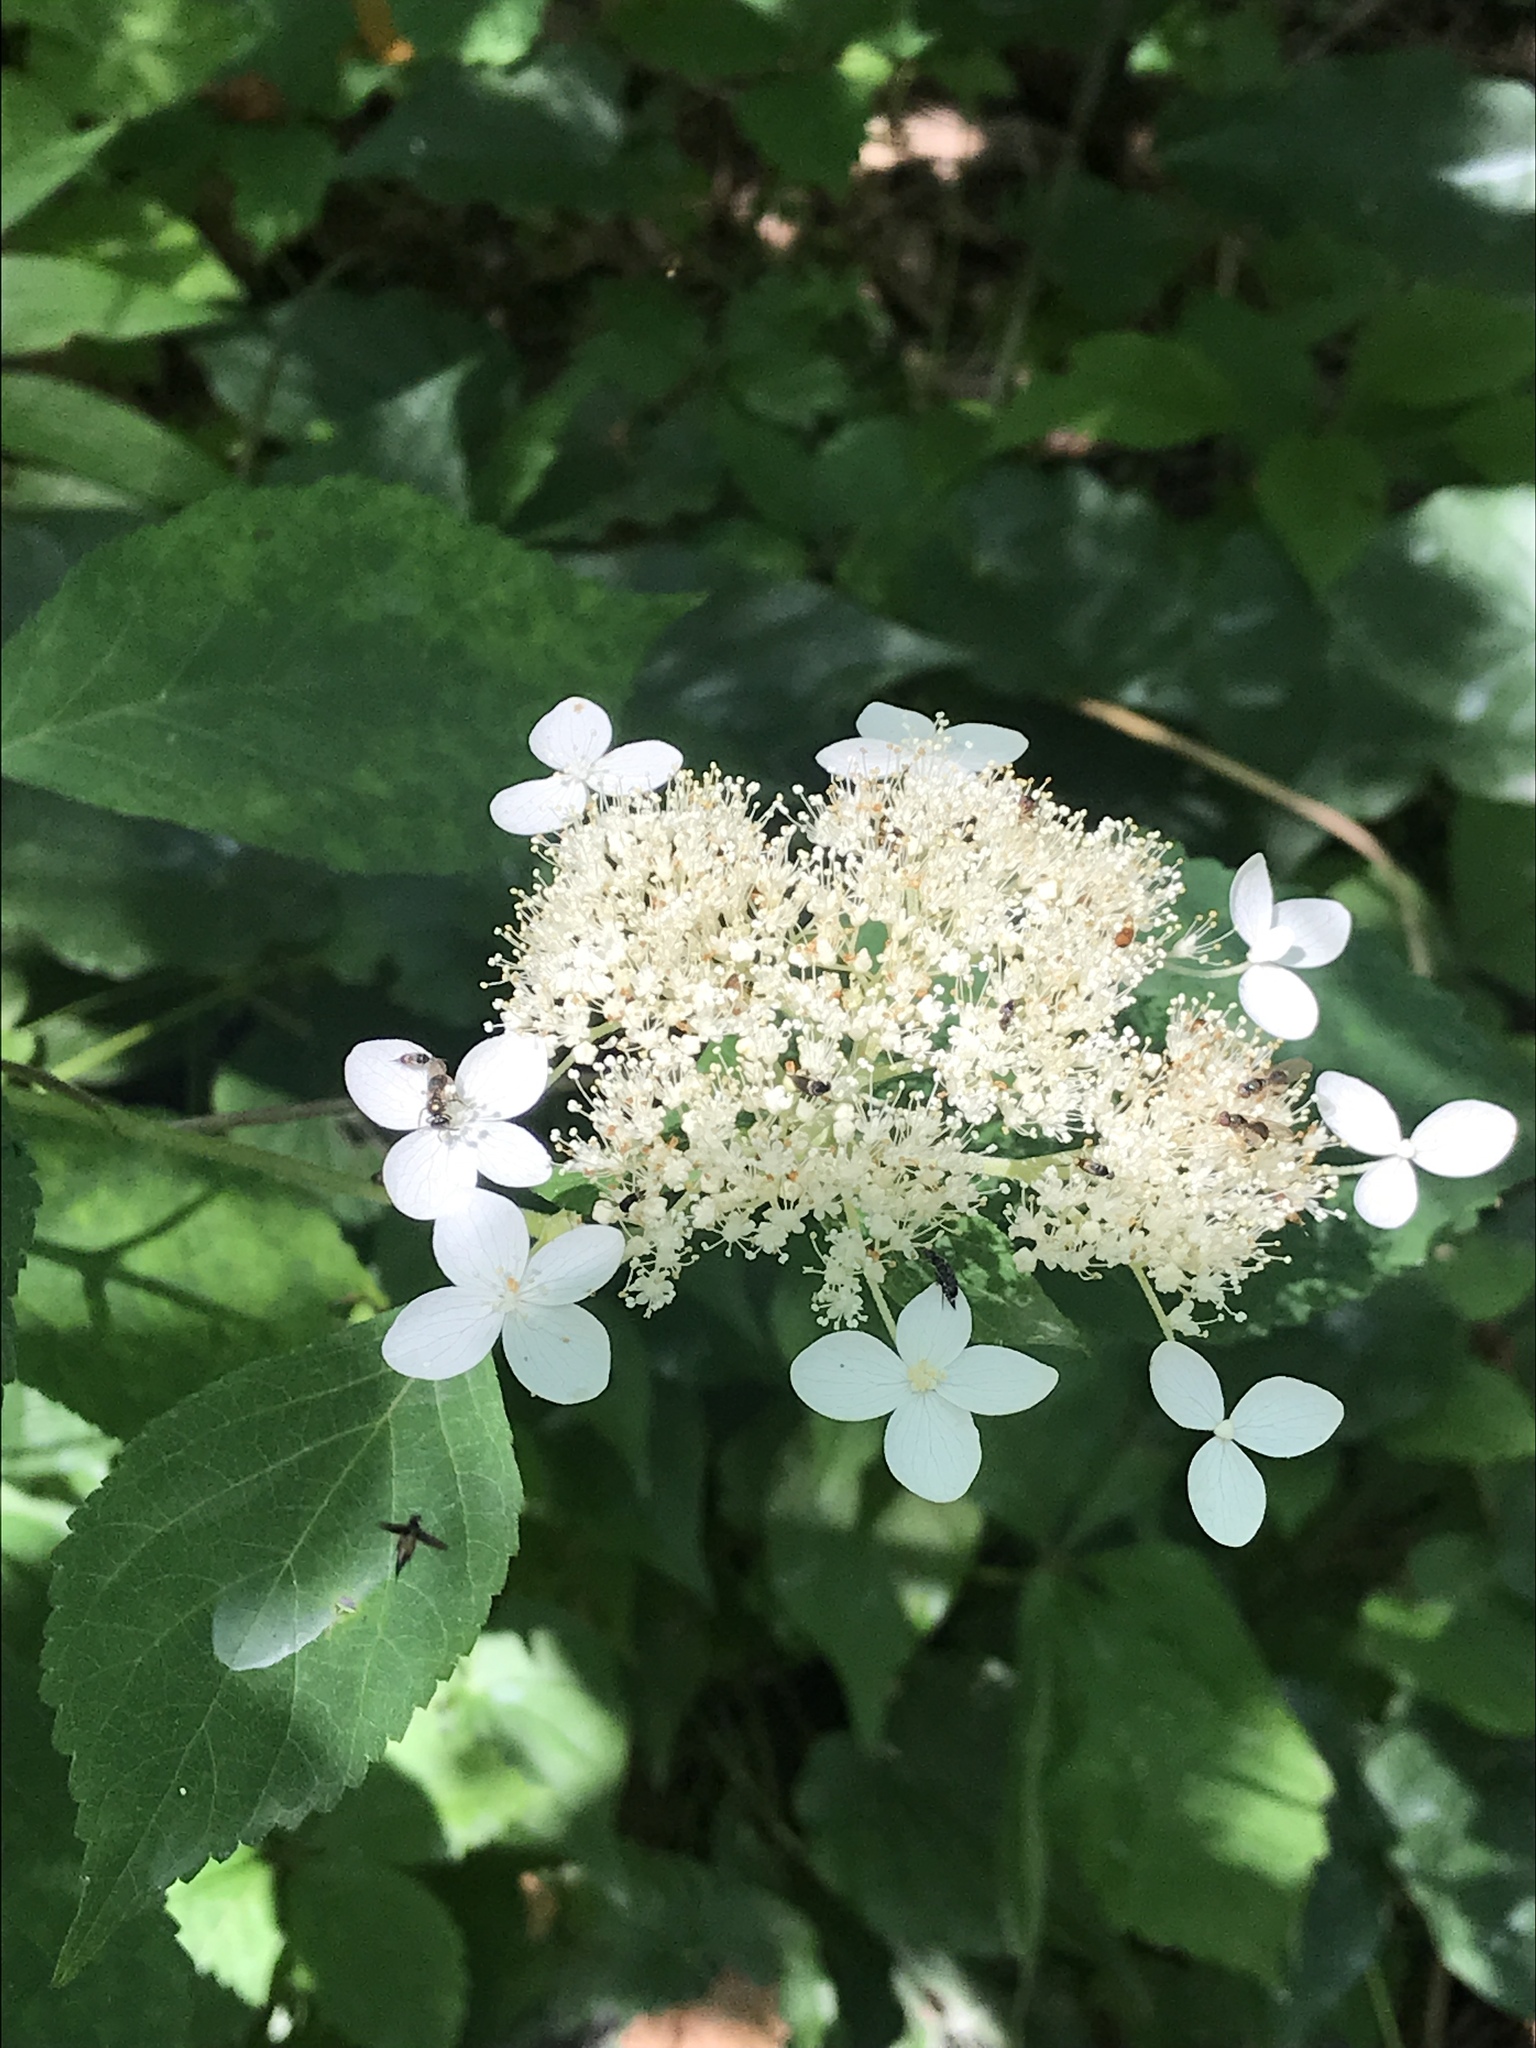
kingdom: Plantae
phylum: Tracheophyta
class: Magnoliopsida
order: Cornales
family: Hydrangeaceae
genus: Hydrangea
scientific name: Hydrangea arborescens
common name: Sevenbark
